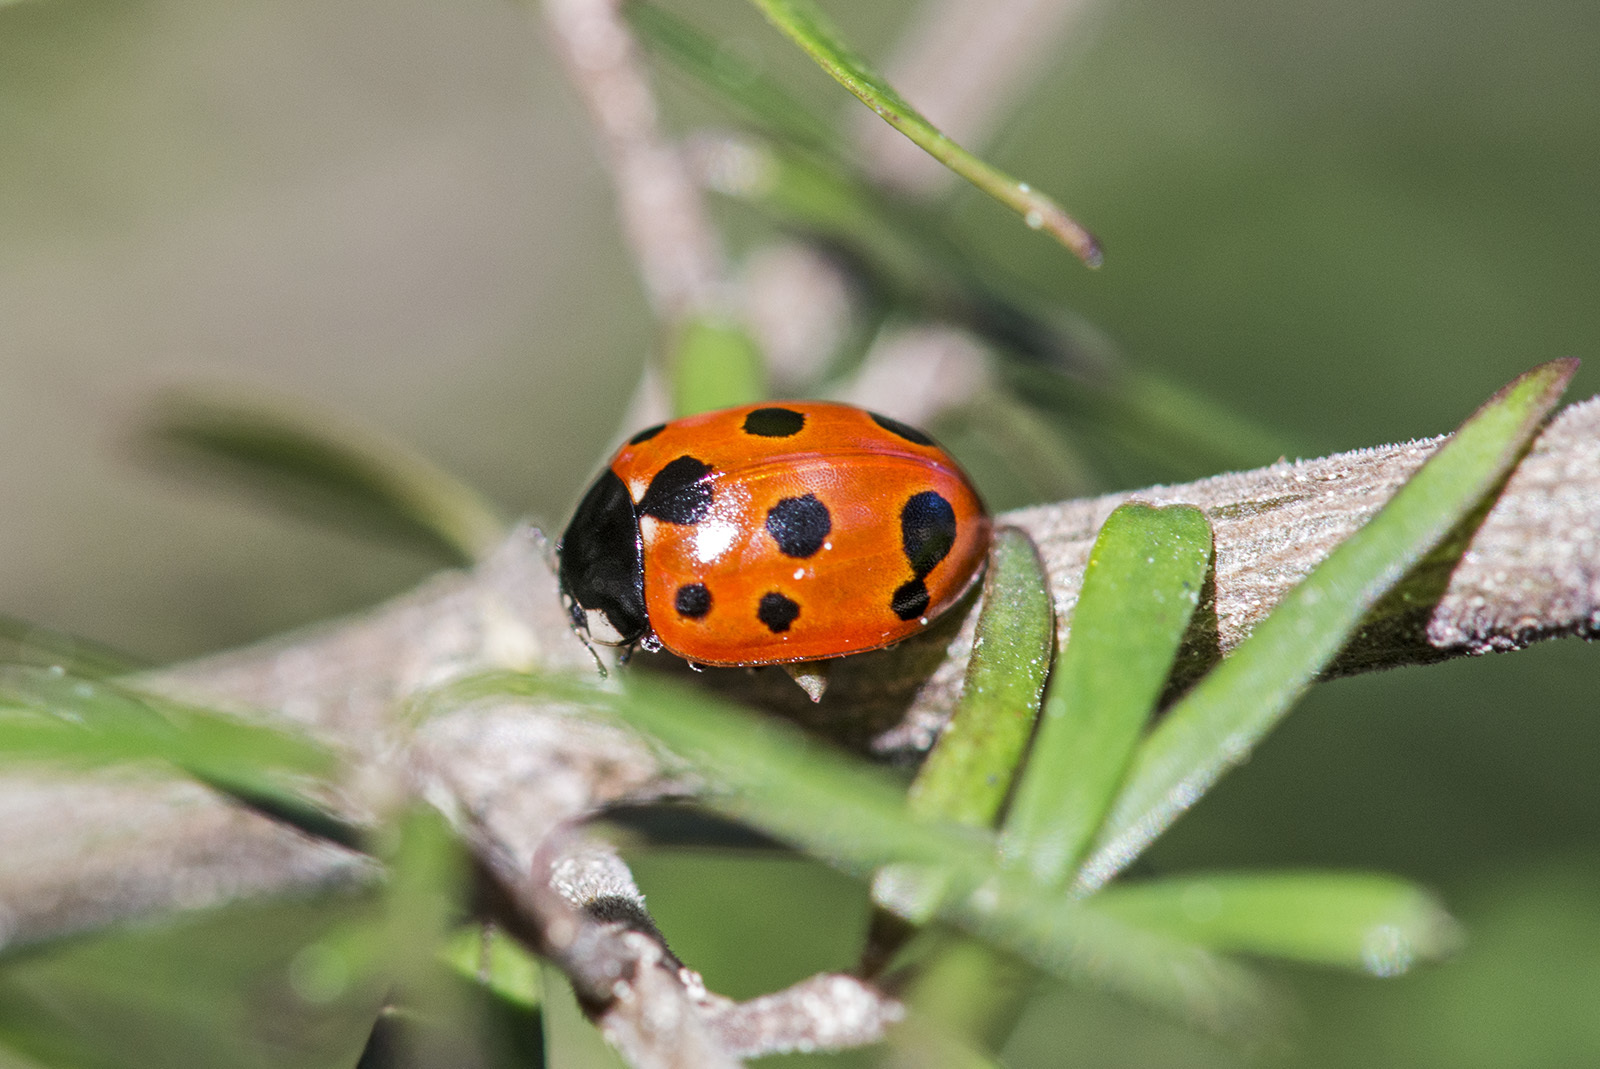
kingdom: Animalia
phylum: Arthropoda
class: Insecta
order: Coleoptera
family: Coccinellidae
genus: Coccinella
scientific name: Coccinella undecimpunctata
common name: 11-spot ladybird
